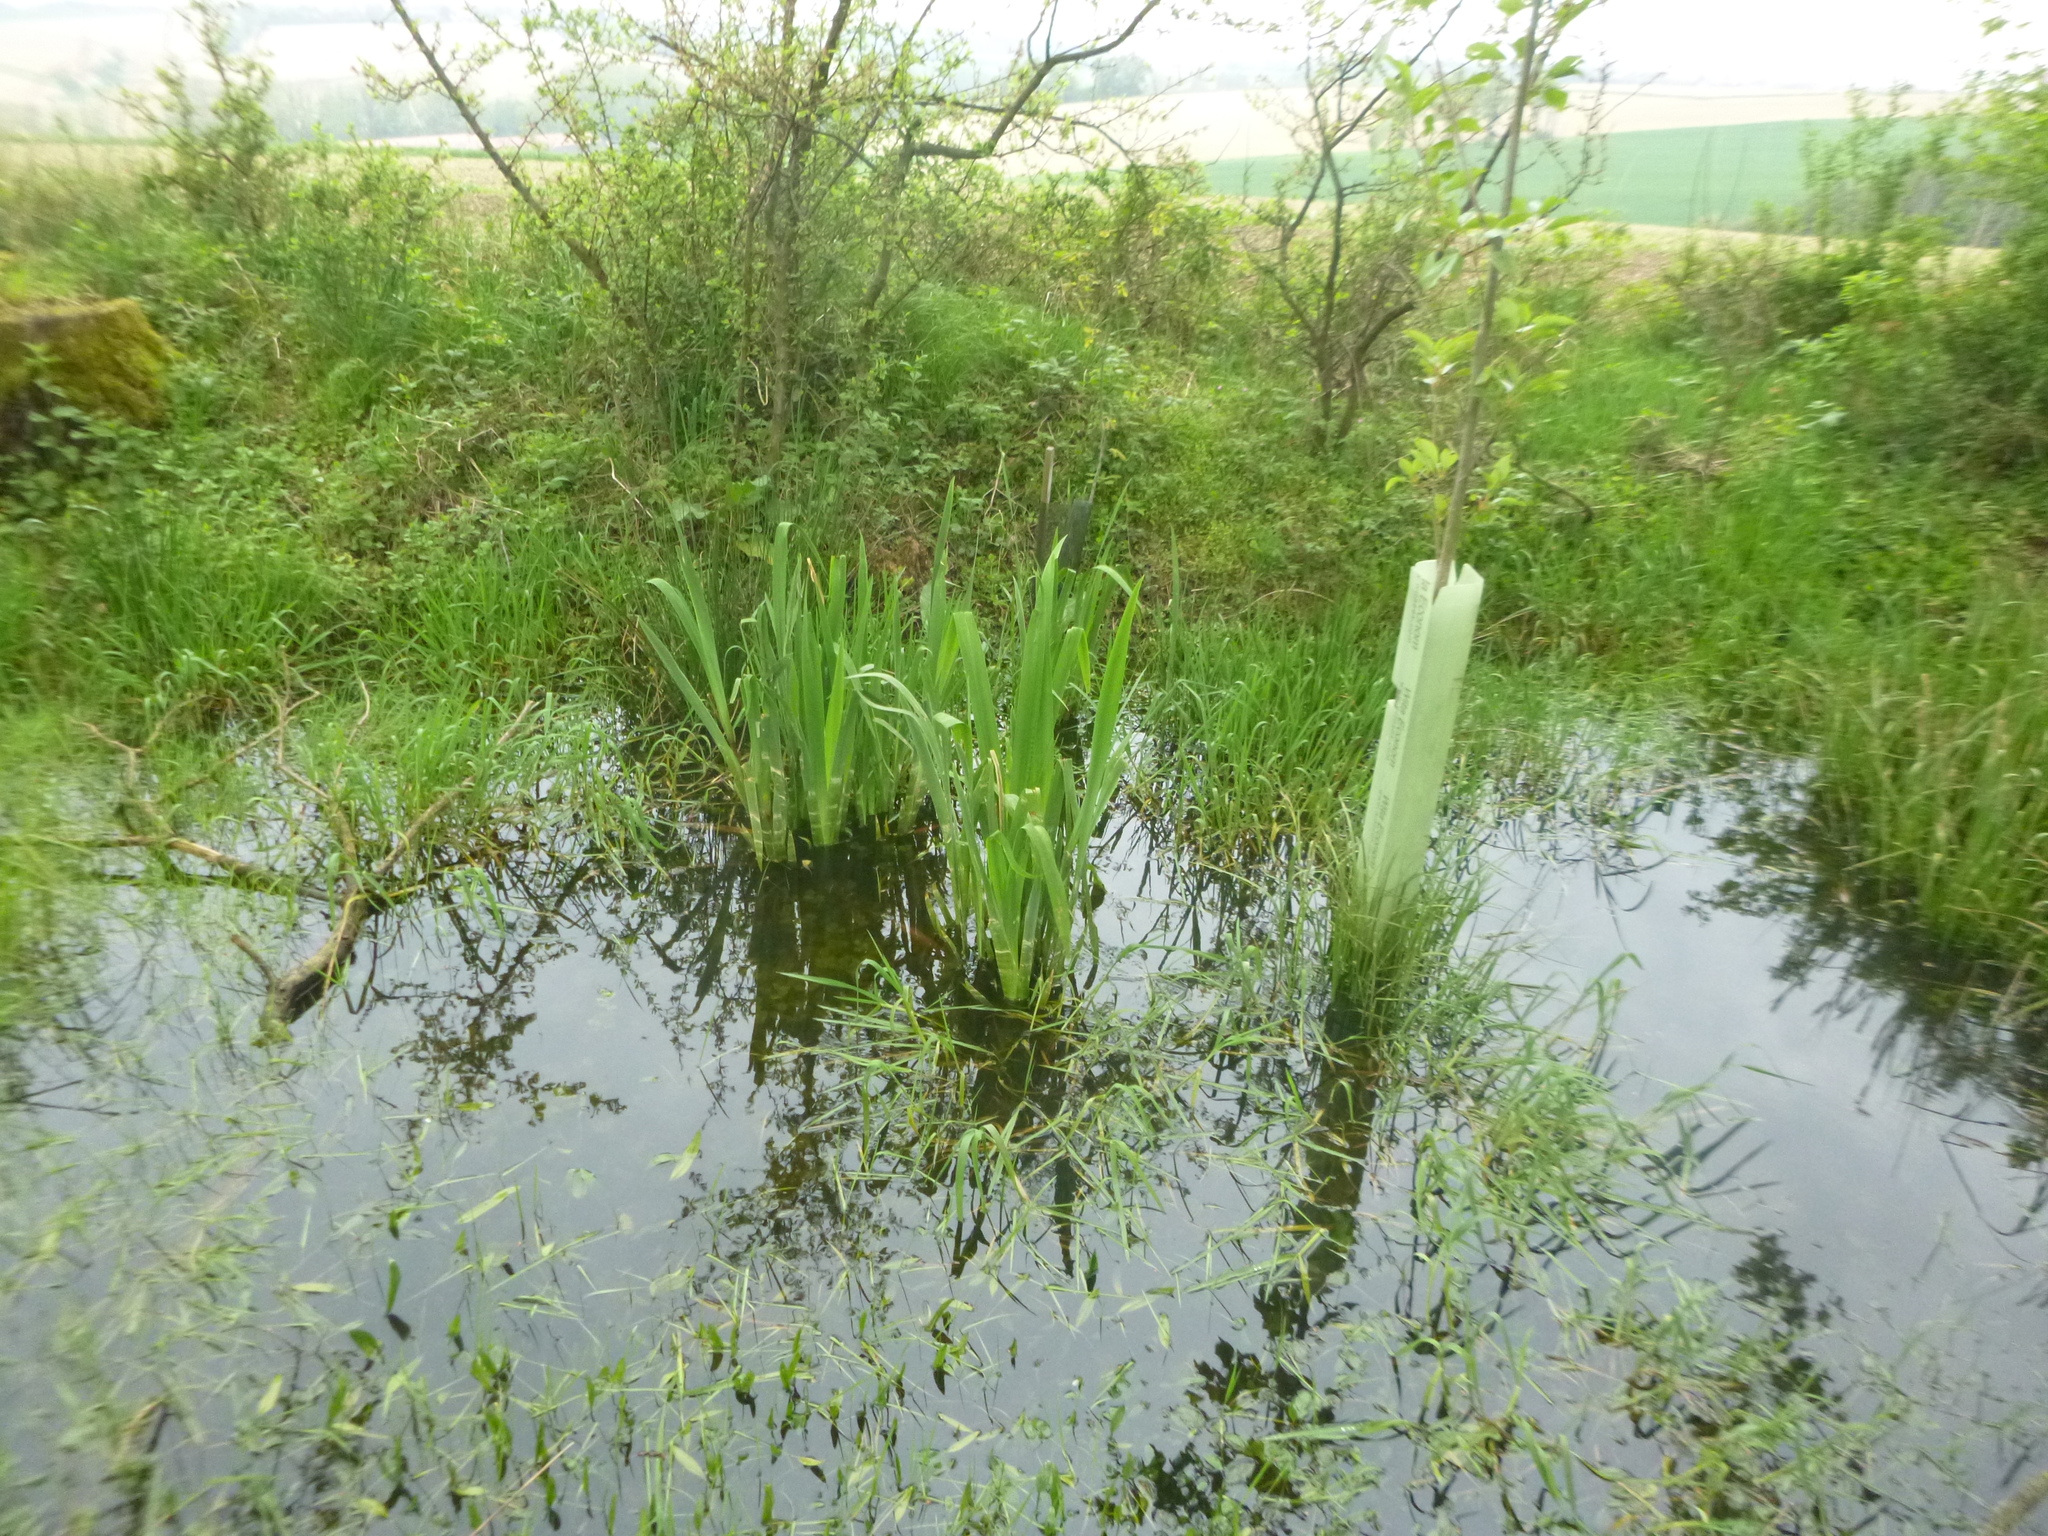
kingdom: Plantae
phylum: Tracheophyta
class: Liliopsida
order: Asparagales
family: Iridaceae
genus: Iris
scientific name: Iris pseudacorus
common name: Yellow flag
